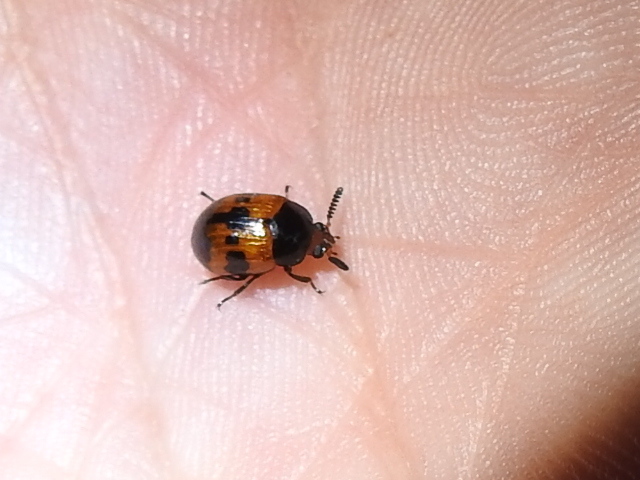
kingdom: Animalia
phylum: Arthropoda
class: Insecta
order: Coleoptera
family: Tenebrionidae
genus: Diaperis
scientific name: Diaperis nigronotata
